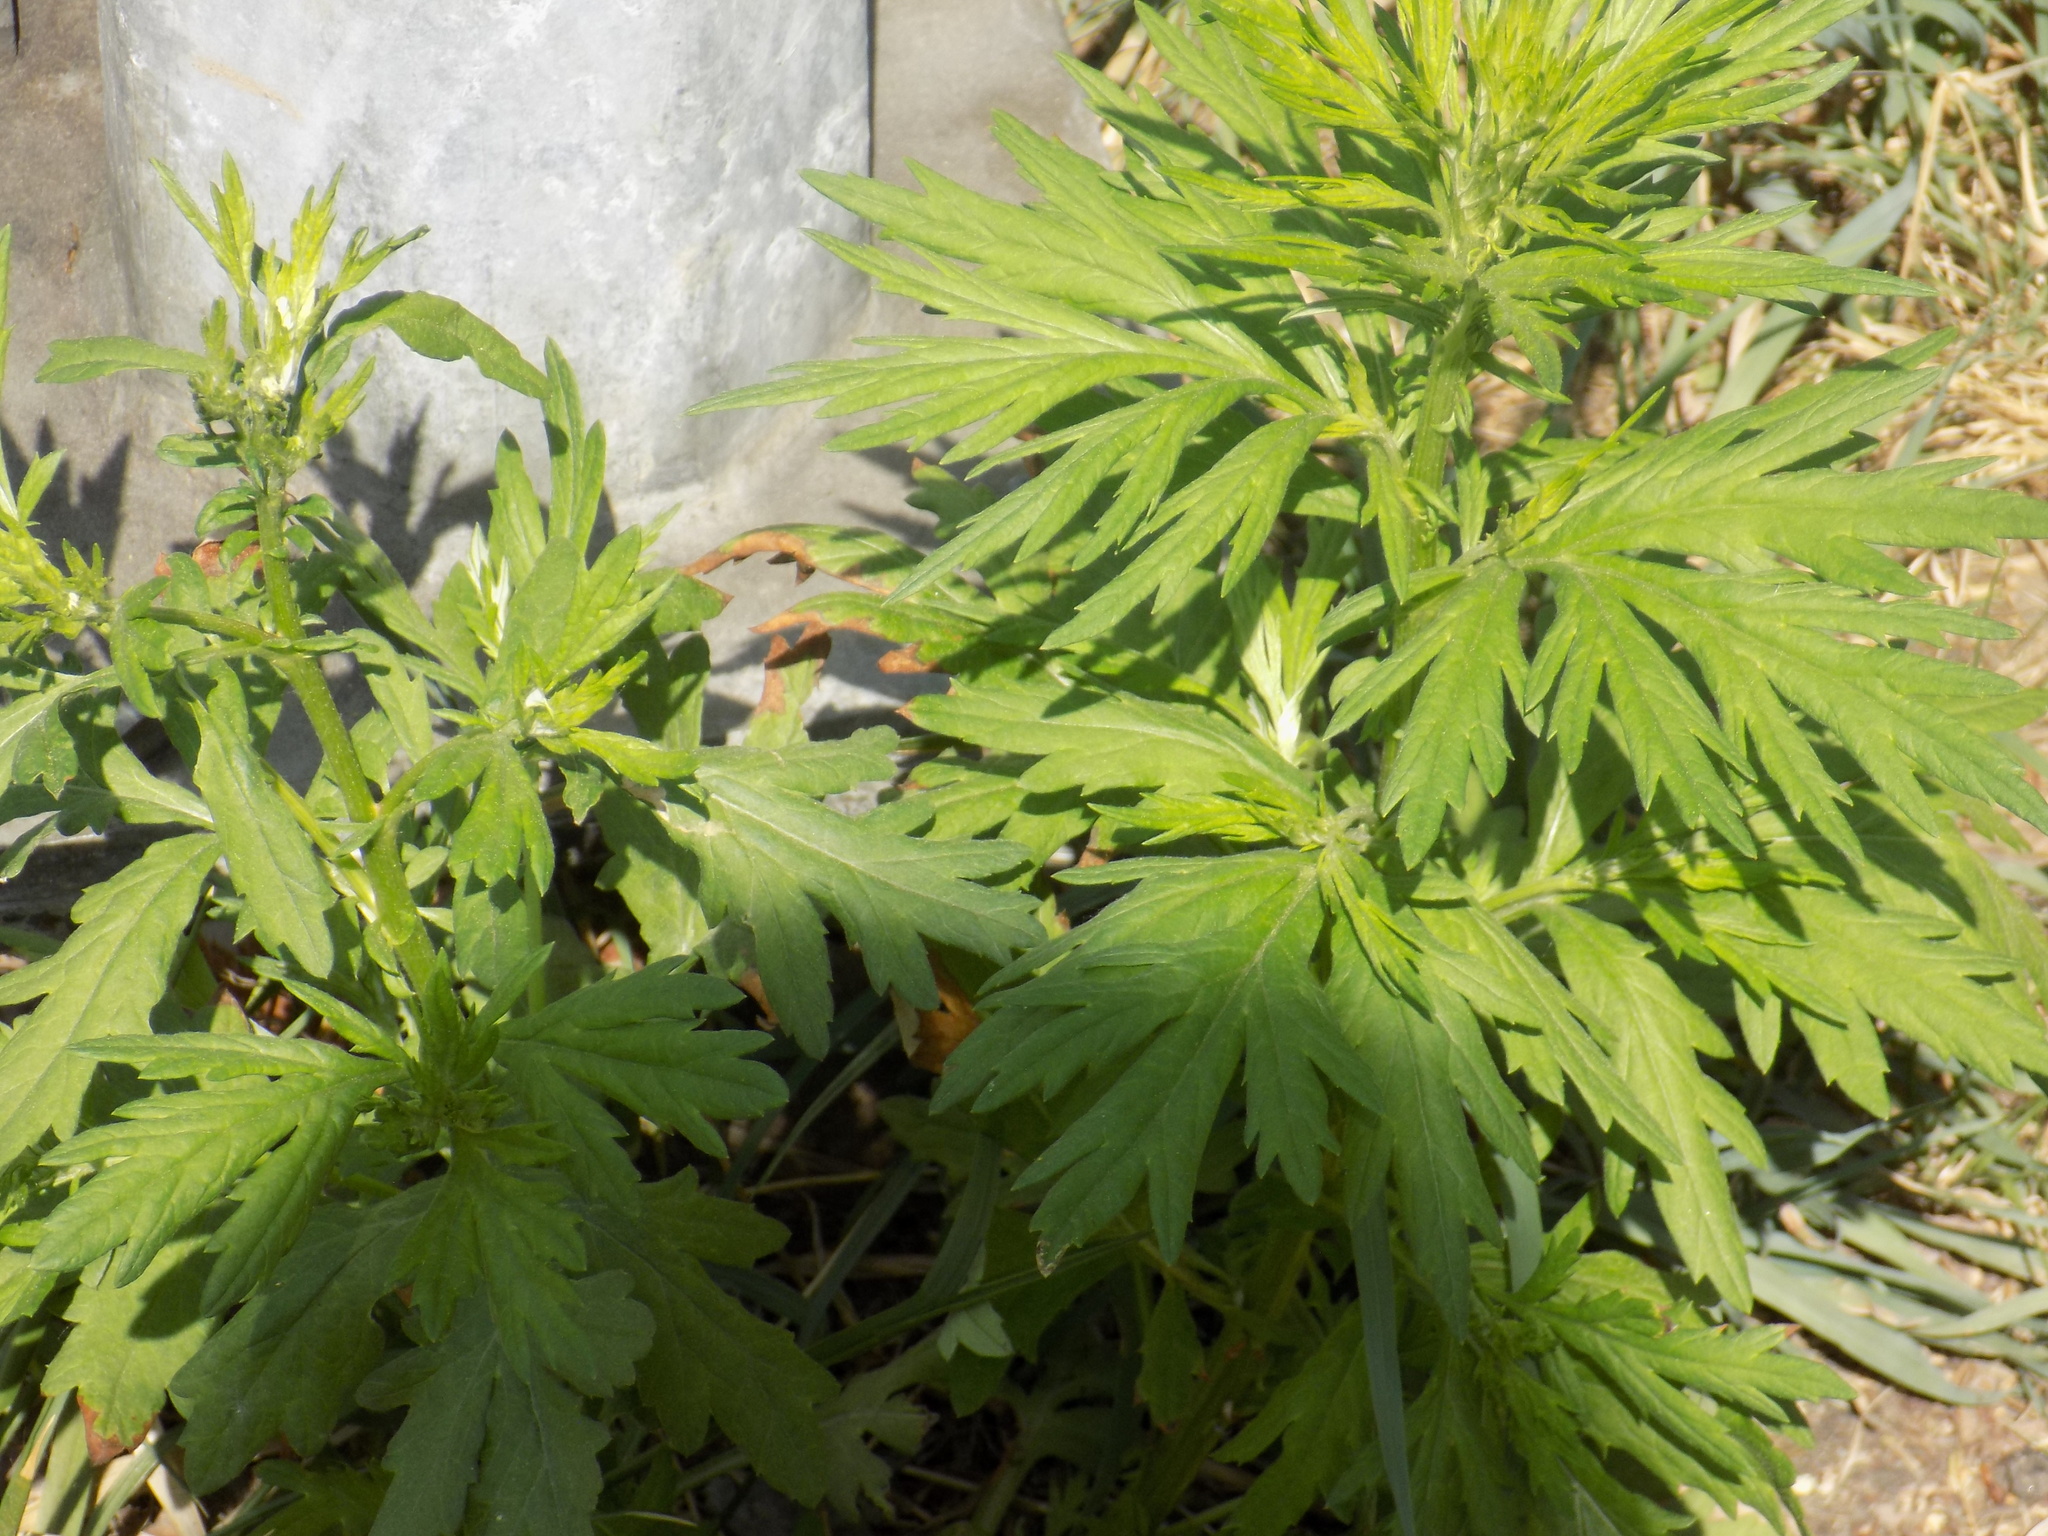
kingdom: Plantae
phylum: Tracheophyta
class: Magnoliopsida
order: Asterales
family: Asteraceae
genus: Artemisia
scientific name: Artemisia vulgaris
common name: Mugwort
